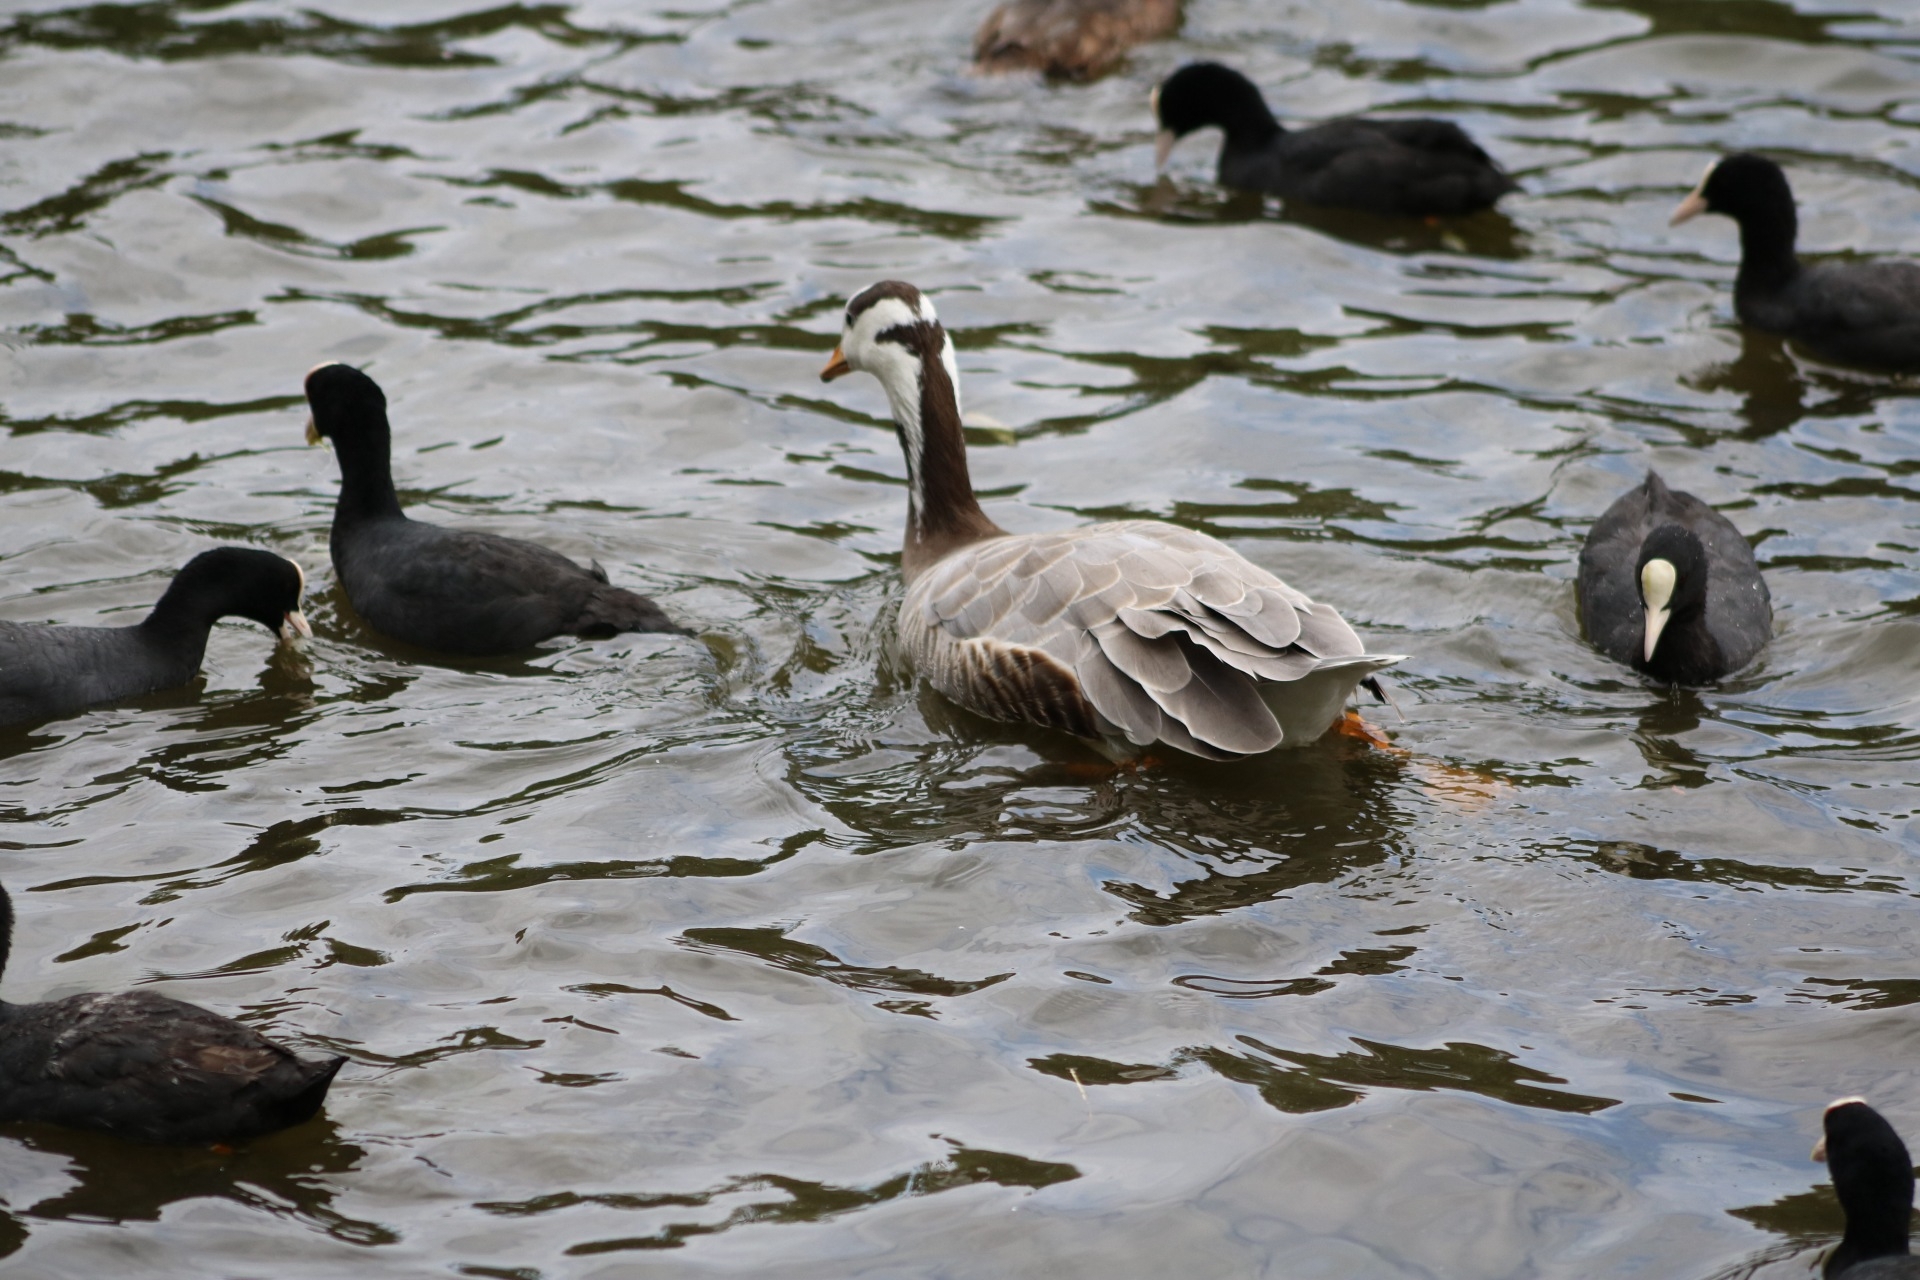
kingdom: Animalia
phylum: Chordata
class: Aves
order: Anseriformes
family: Anatidae
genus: Anser
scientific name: Anser indicus
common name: Bar-headed goose
